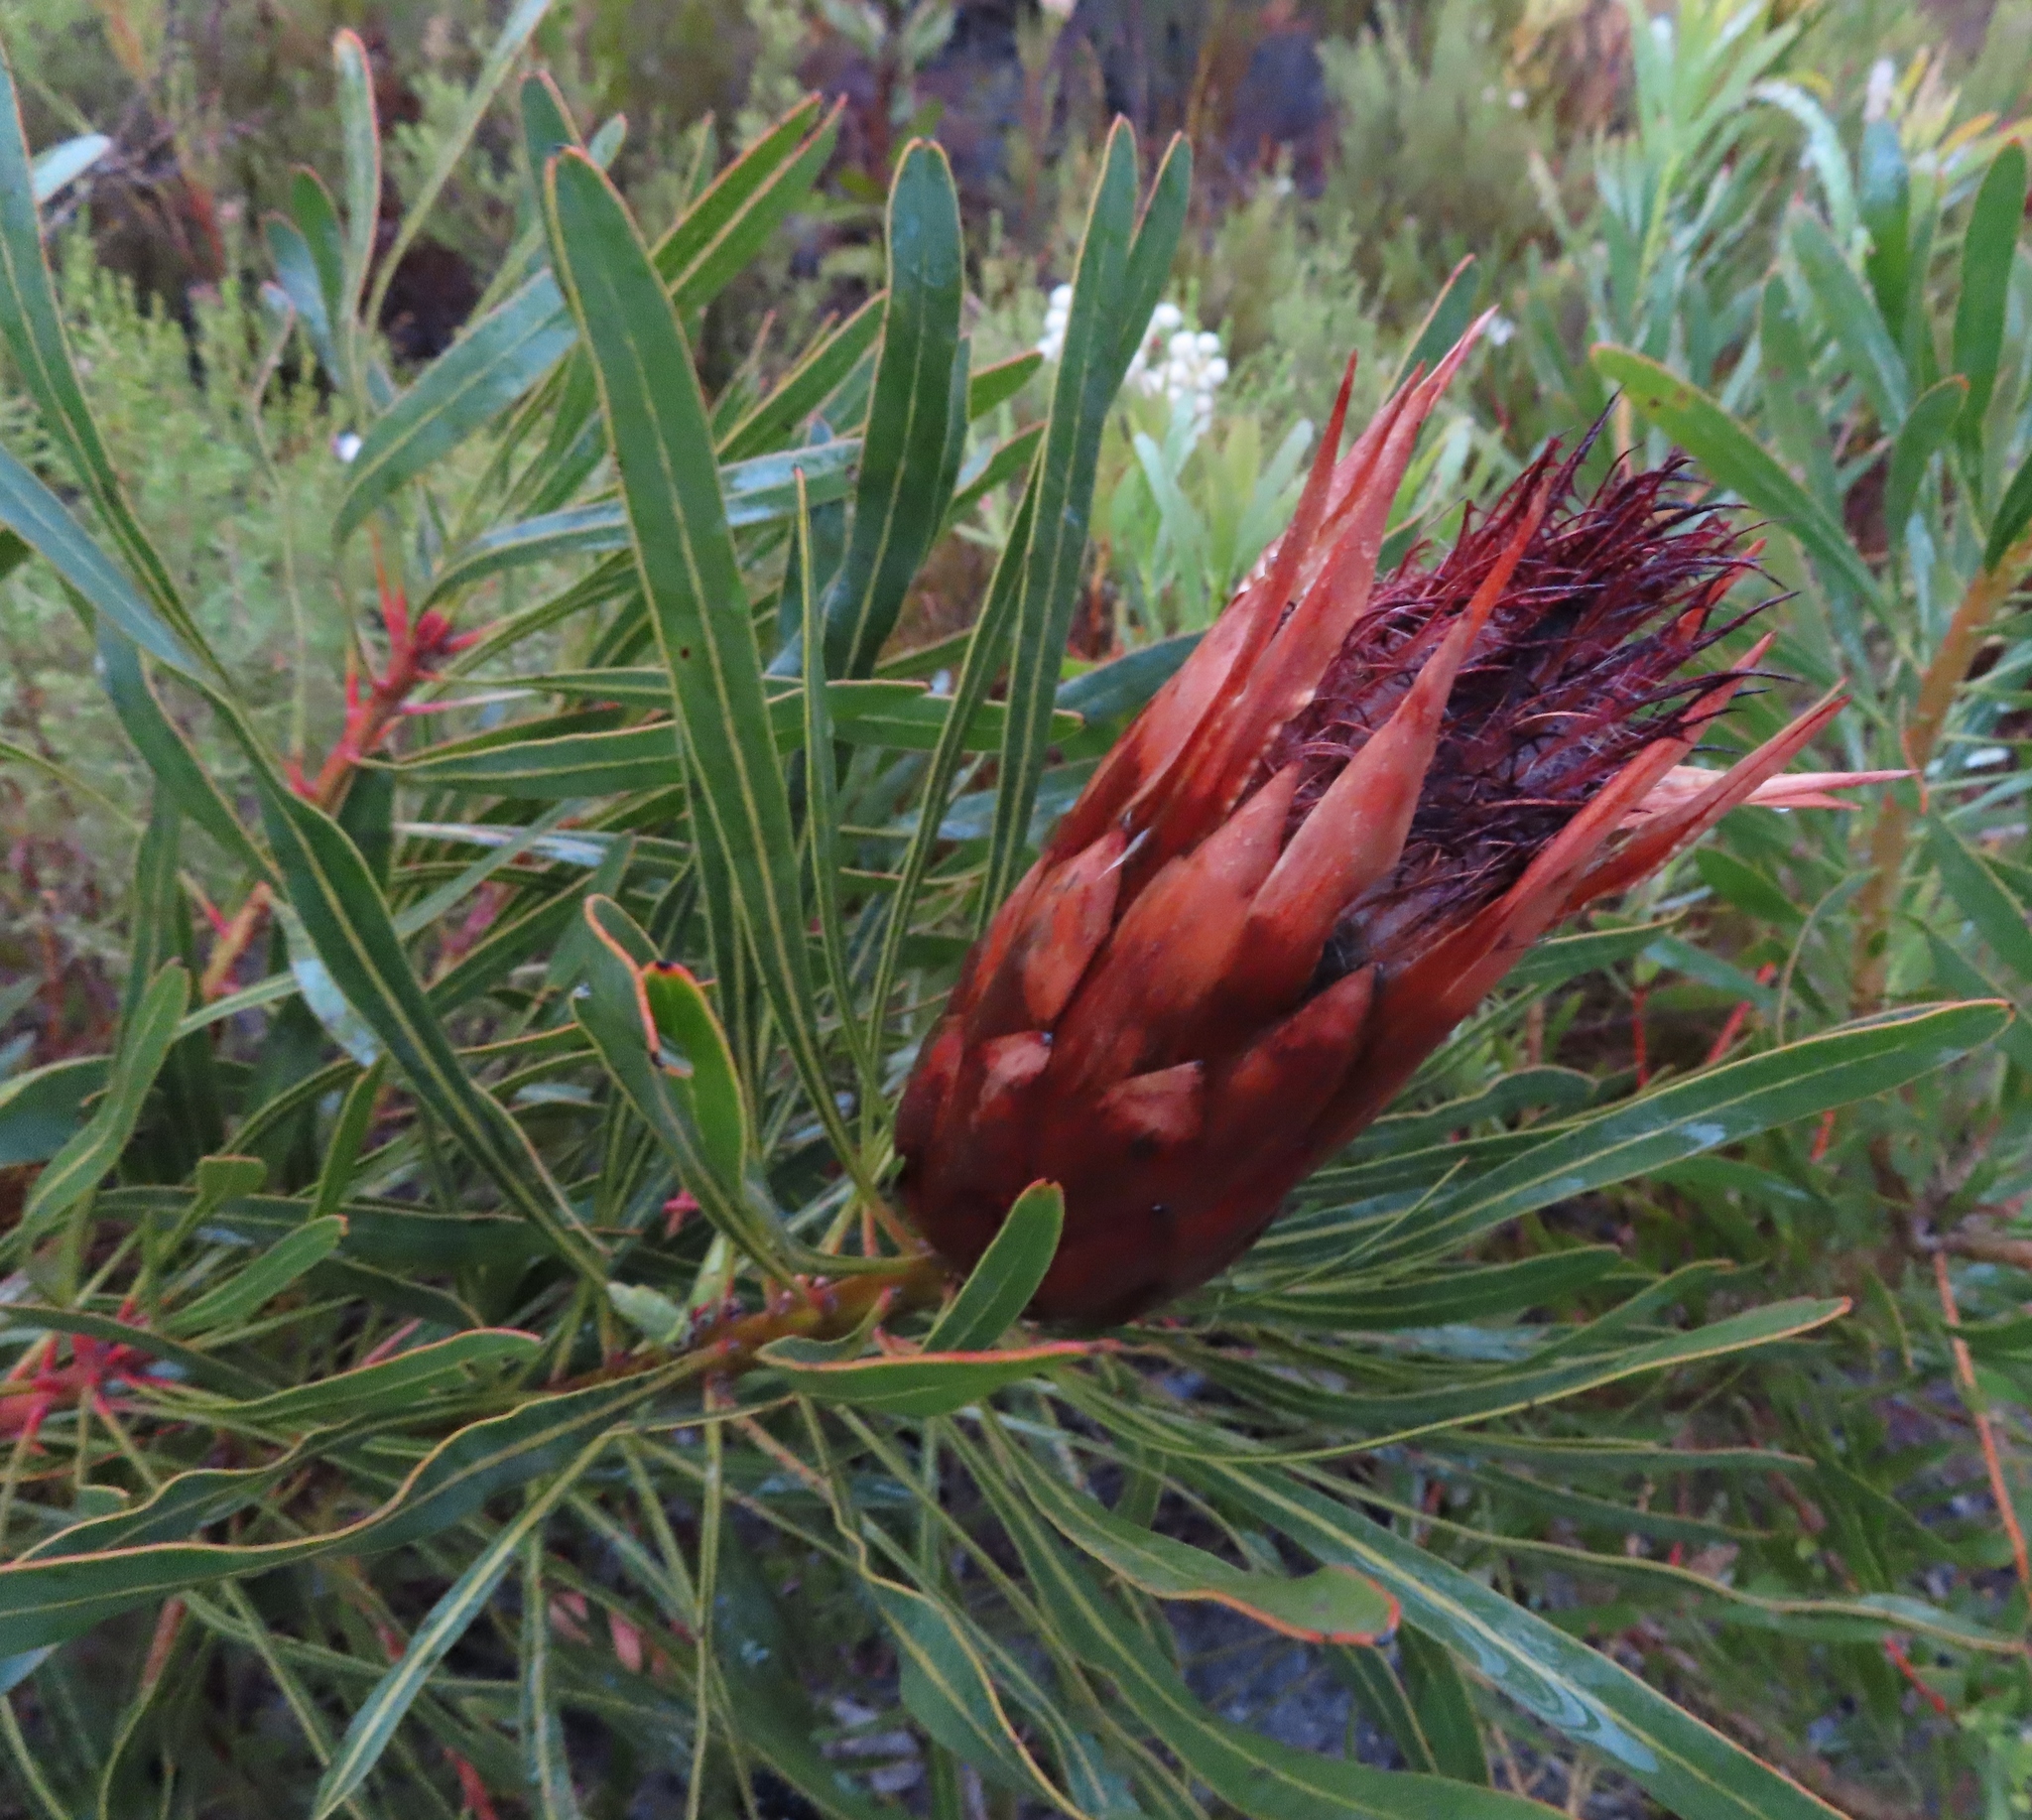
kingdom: Plantae
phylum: Tracheophyta
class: Magnoliopsida
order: Proteales
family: Proteaceae
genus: Protea
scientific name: Protea longifolia
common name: Long-leaf sugarbush
